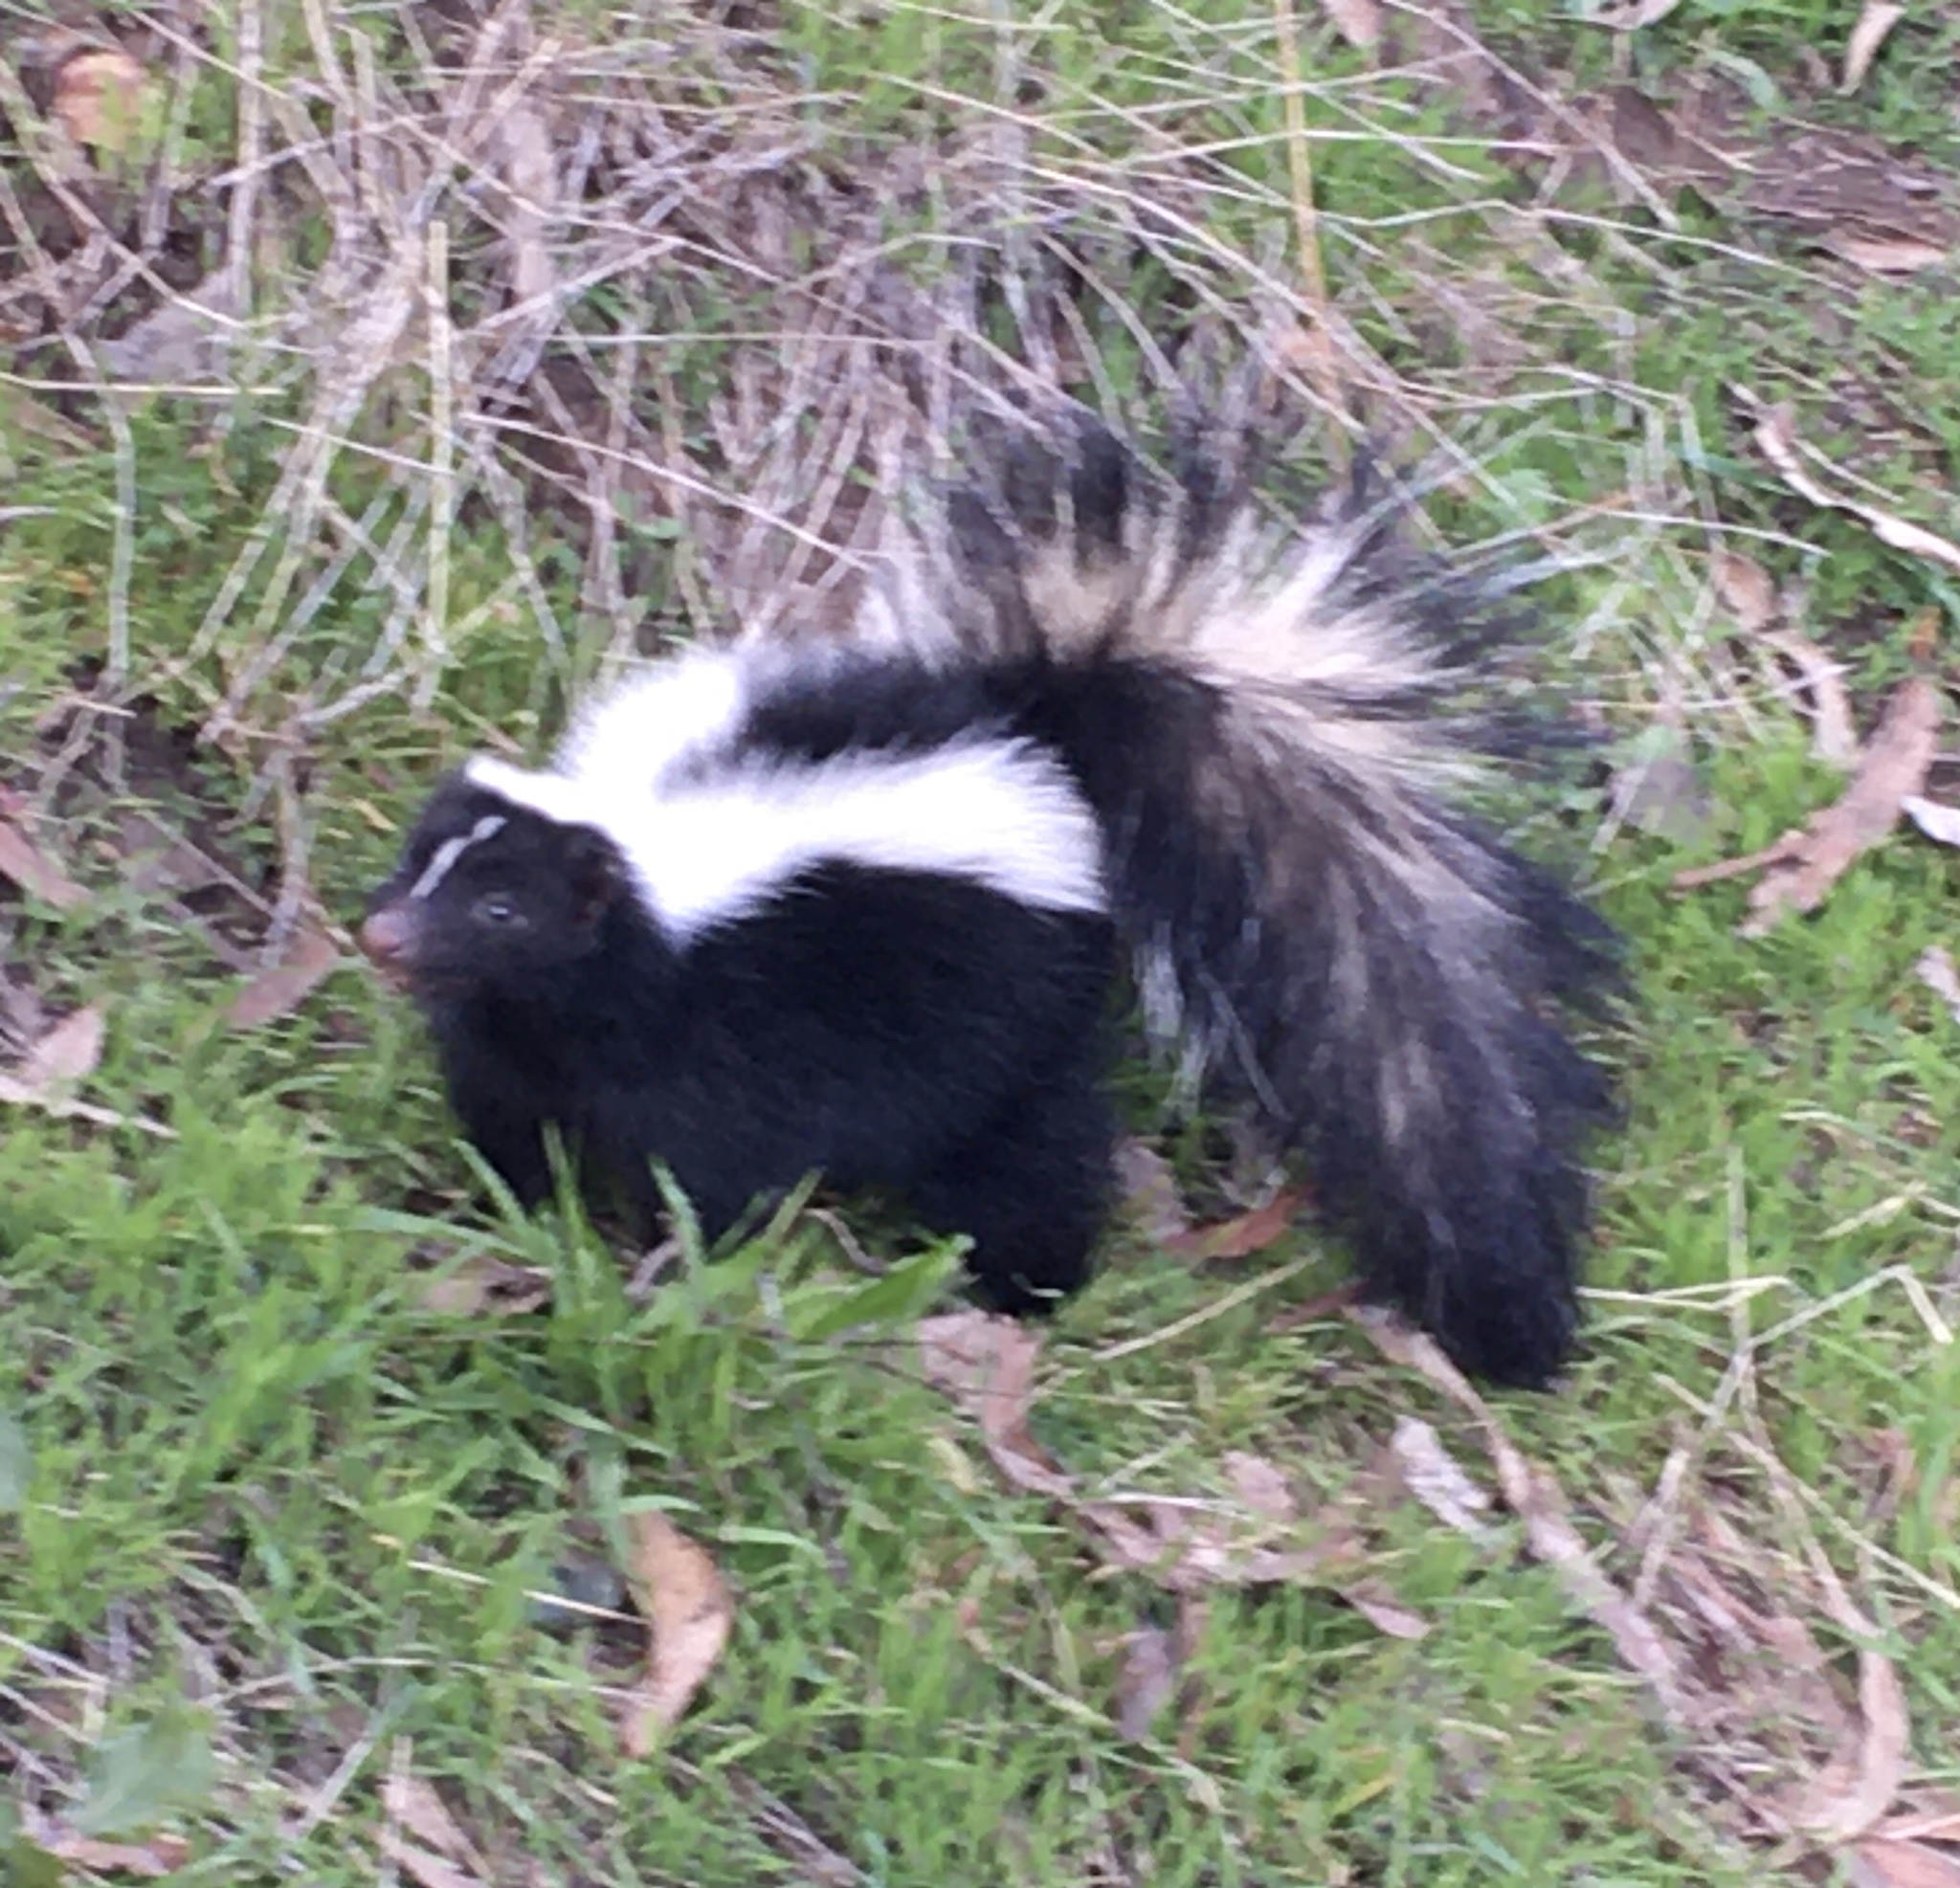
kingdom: Animalia
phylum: Chordata
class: Mammalia
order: Carnivora
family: Mephitidae
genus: Mephitis
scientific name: Mephitis mephitis
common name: Striped skunk
